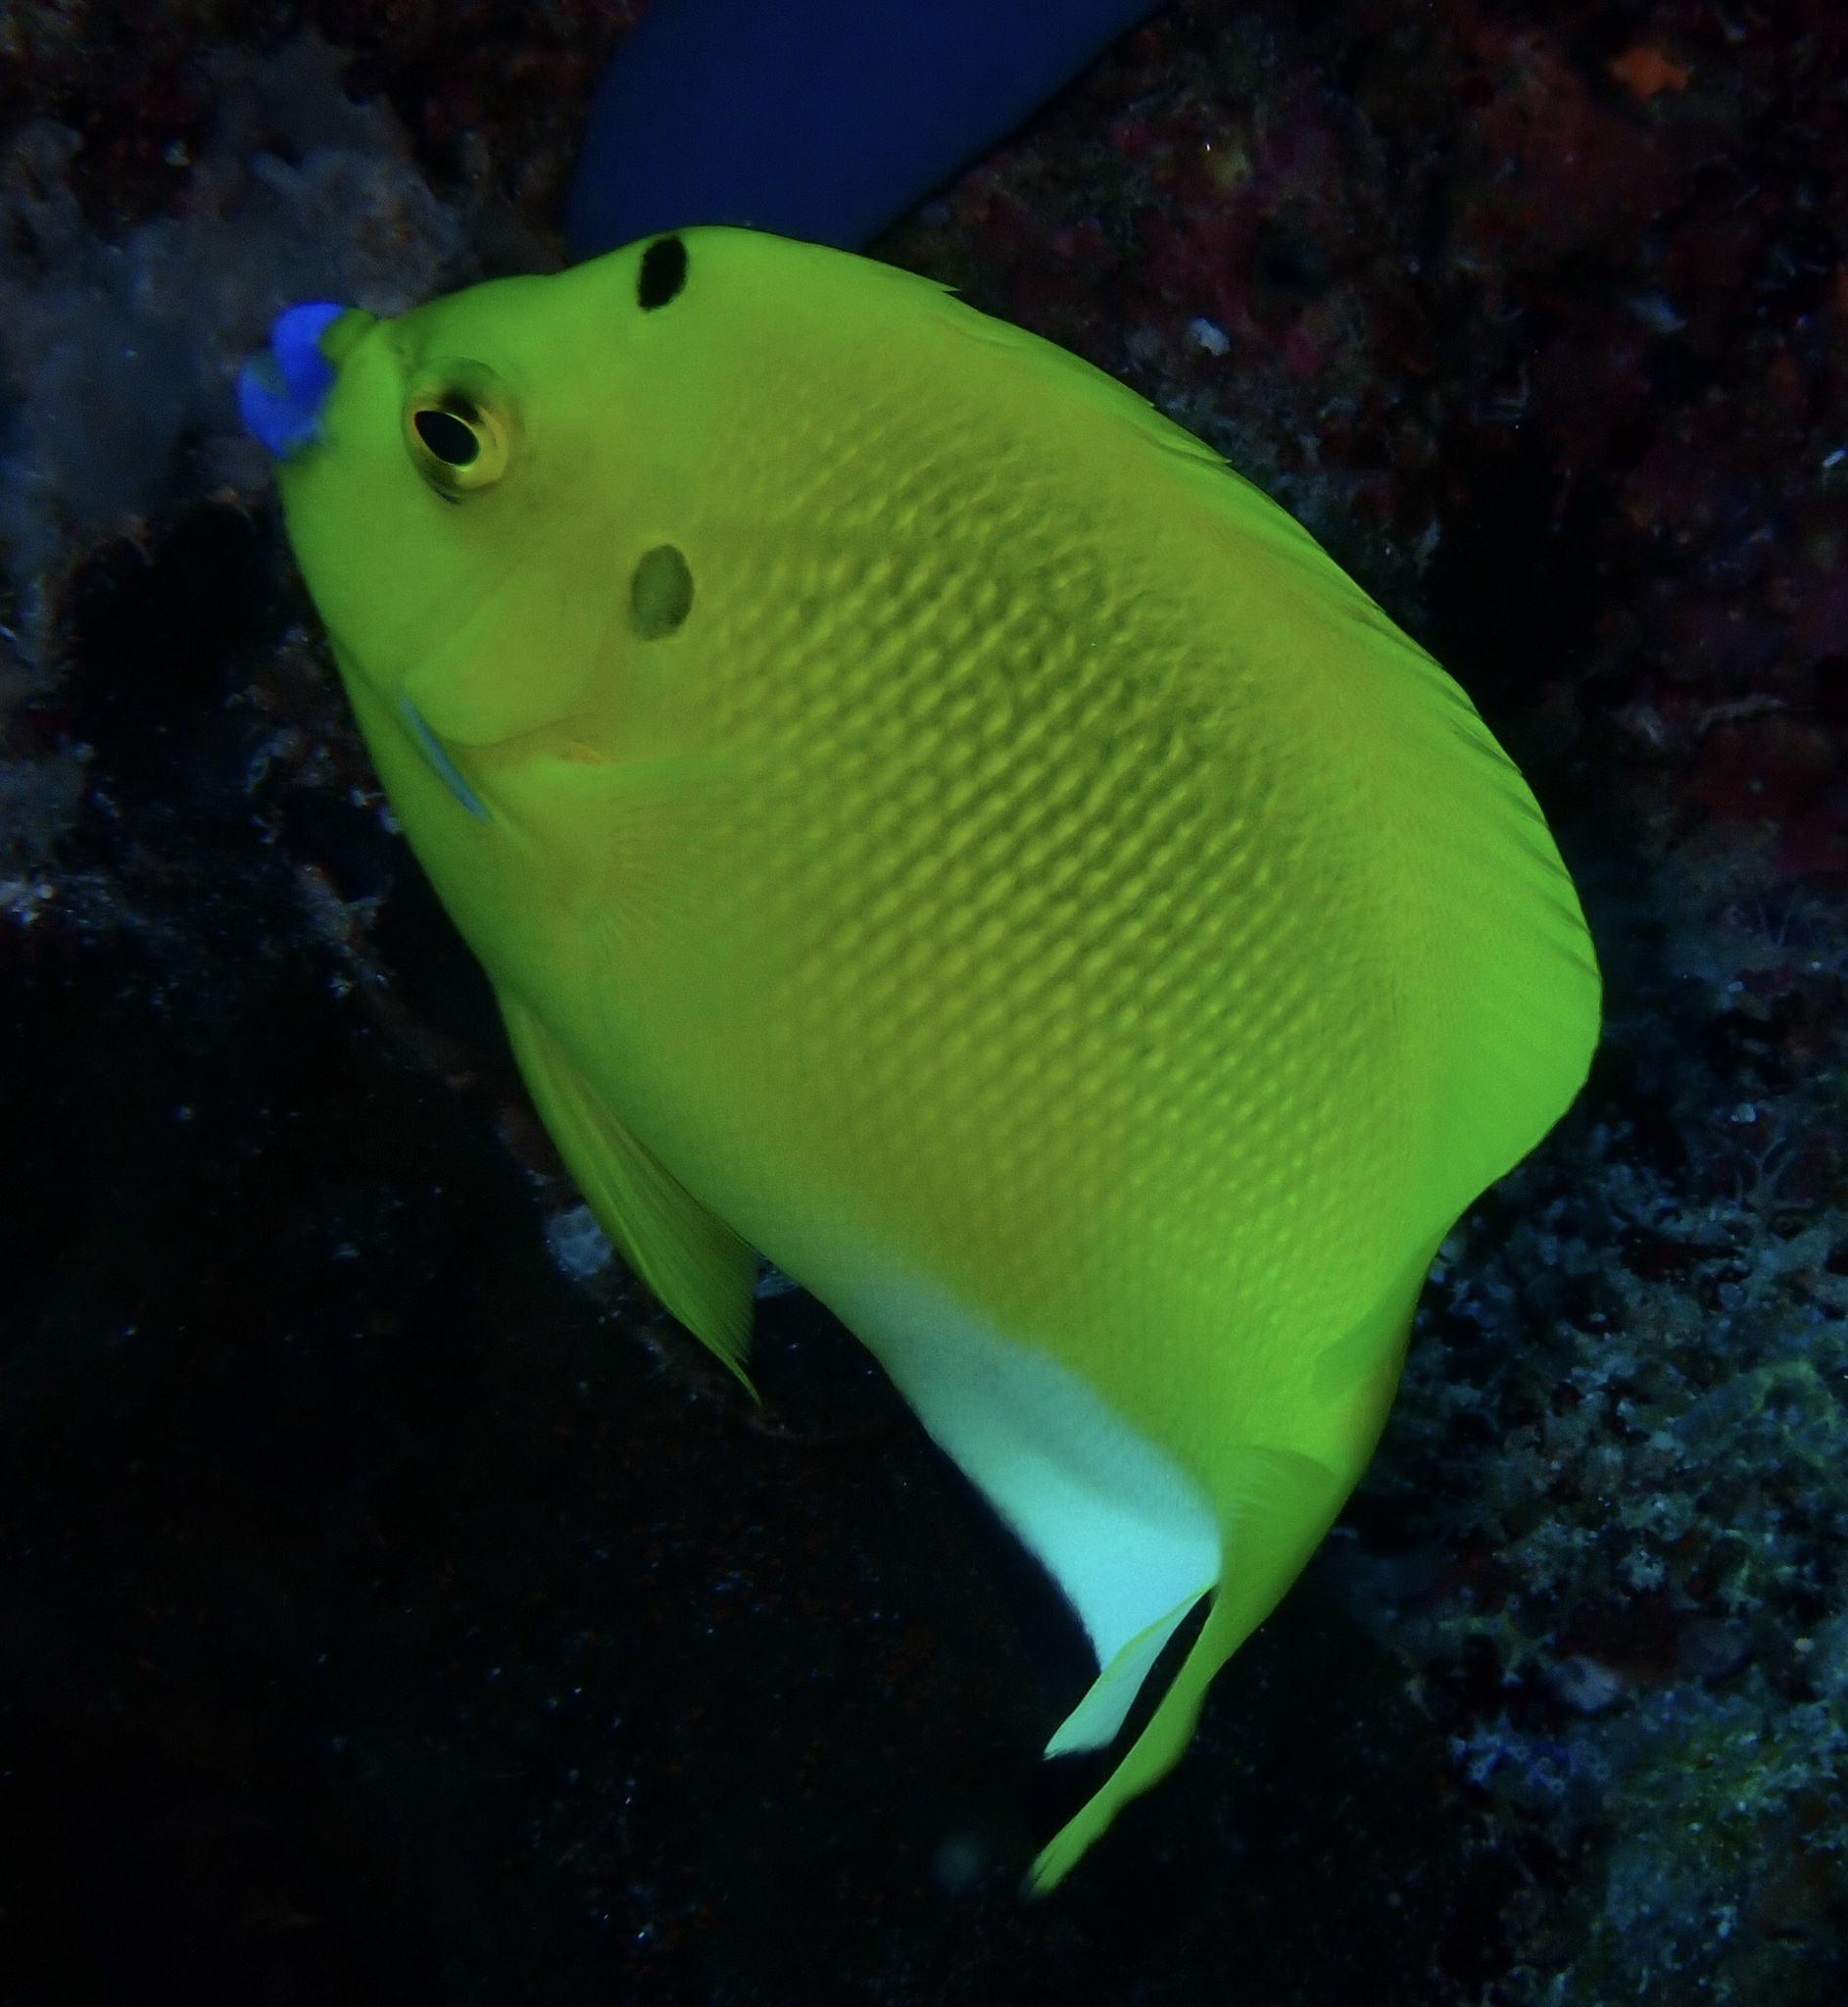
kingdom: Animalia
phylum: Chordata
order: Perciformes
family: Pomacanthidae
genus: Apolemichthys
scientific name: Apolemichthys trimaculatus
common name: Threespot angelfish
